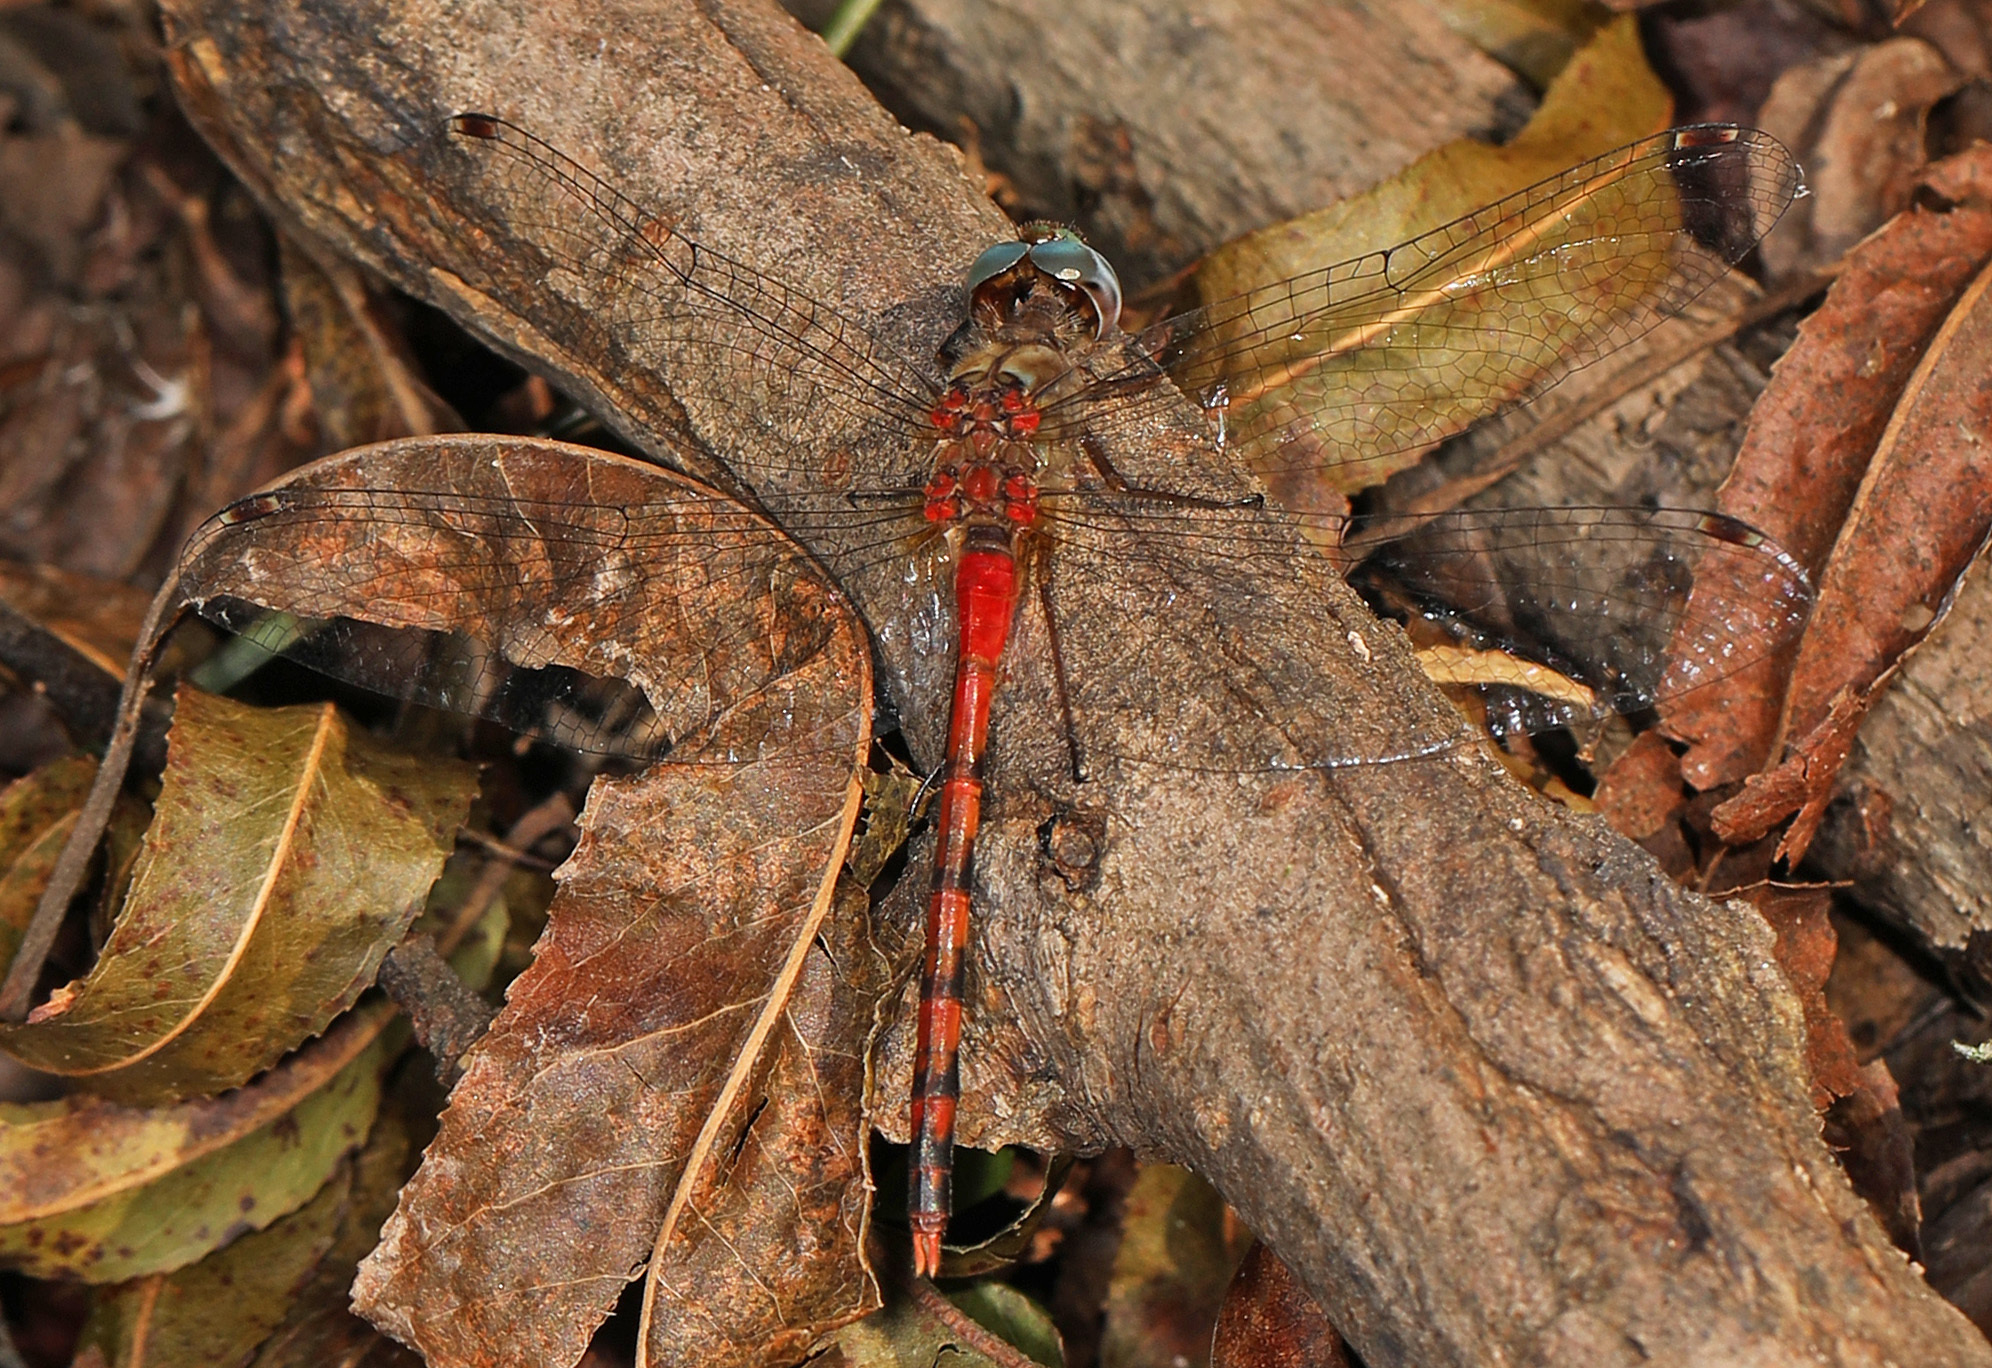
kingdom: Animalia
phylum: Arthropoda
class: Insecta
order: Odonata
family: Libellulidae
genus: Sympetrum
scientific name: Sympetrum ambiguum
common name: Blue-faced meadowhawk
